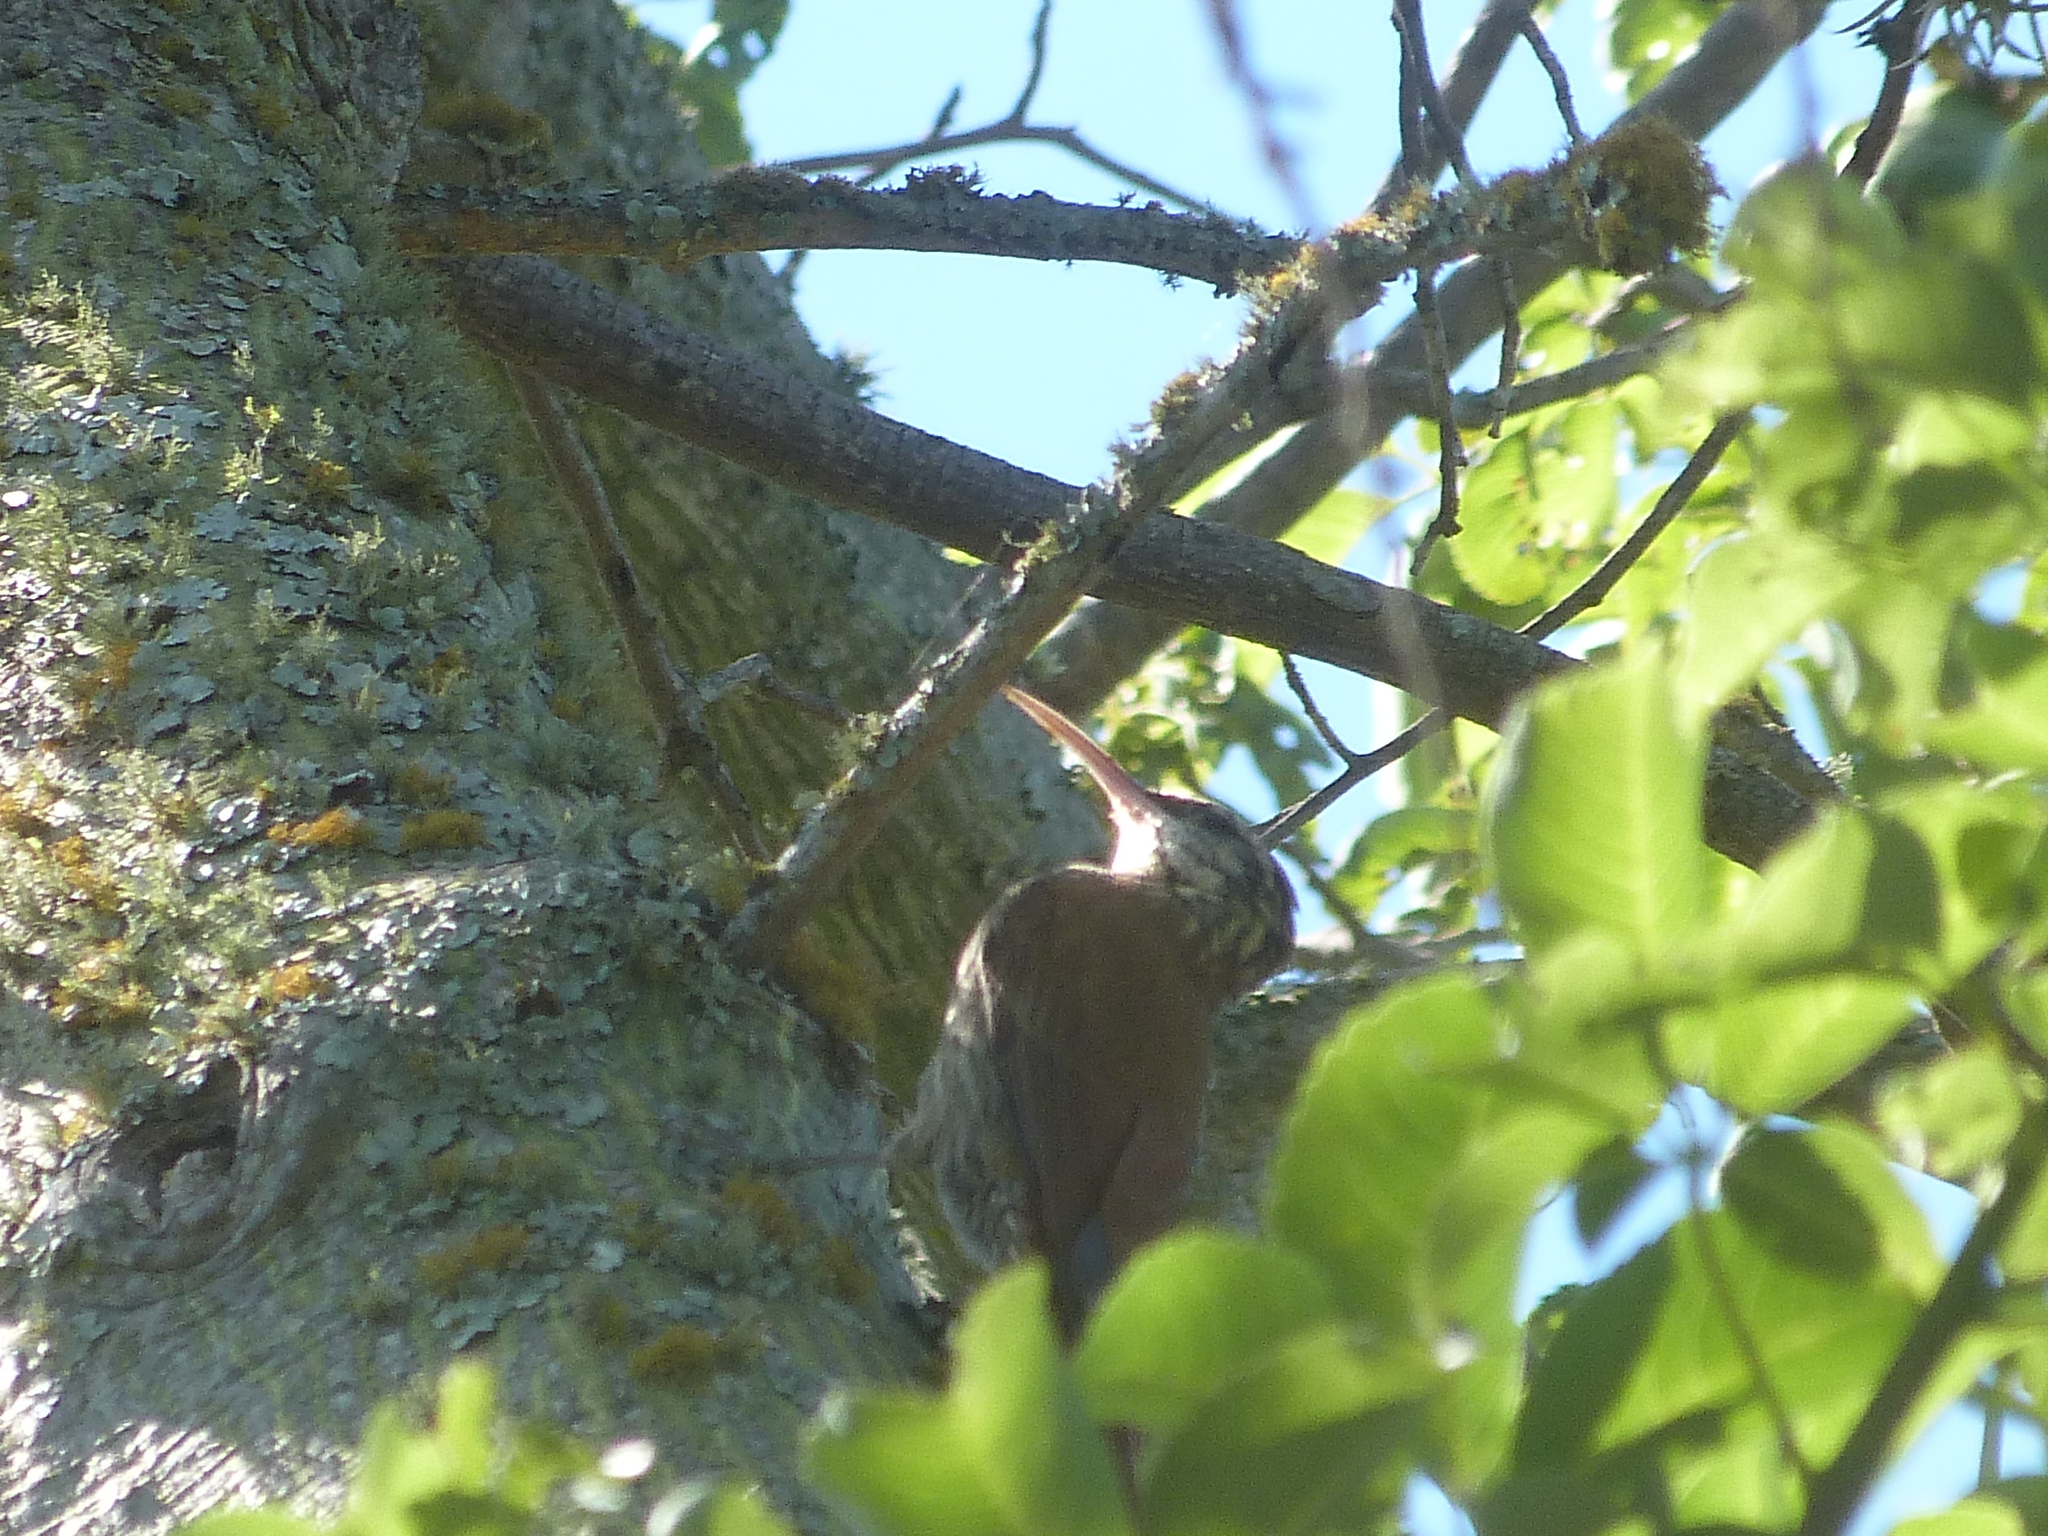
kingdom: Animalia
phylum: Chordata
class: Aves
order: Passeriformes
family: Furnariidae
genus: Lepidocolaptes
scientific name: Lepidocolaptes angustirostris
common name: Narrow-billed woodcreeper
